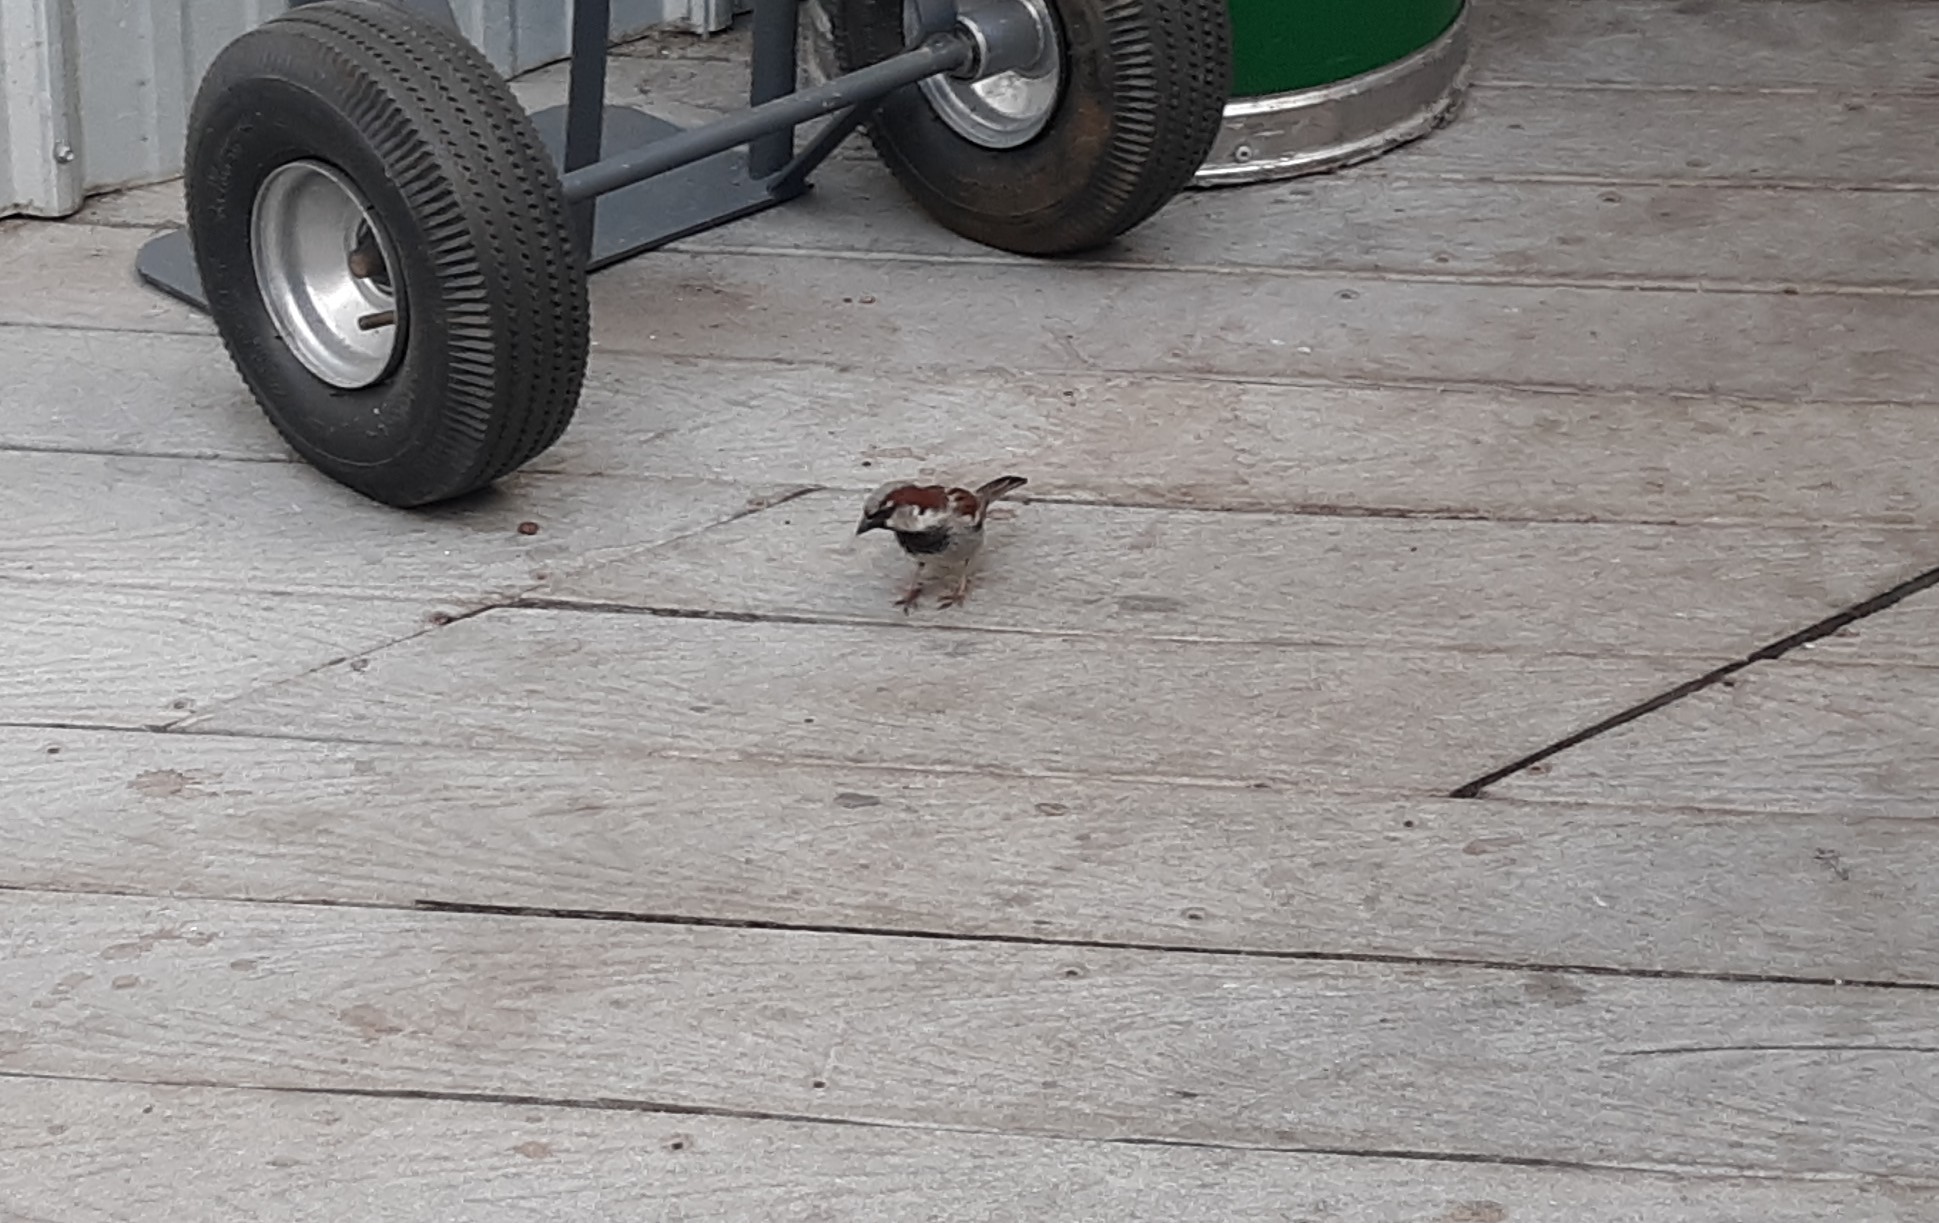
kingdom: Animalia
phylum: Chordata
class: Aves
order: Passeriformes
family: Passeridae
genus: Passer
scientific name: Passer domesticus
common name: House sparrow
